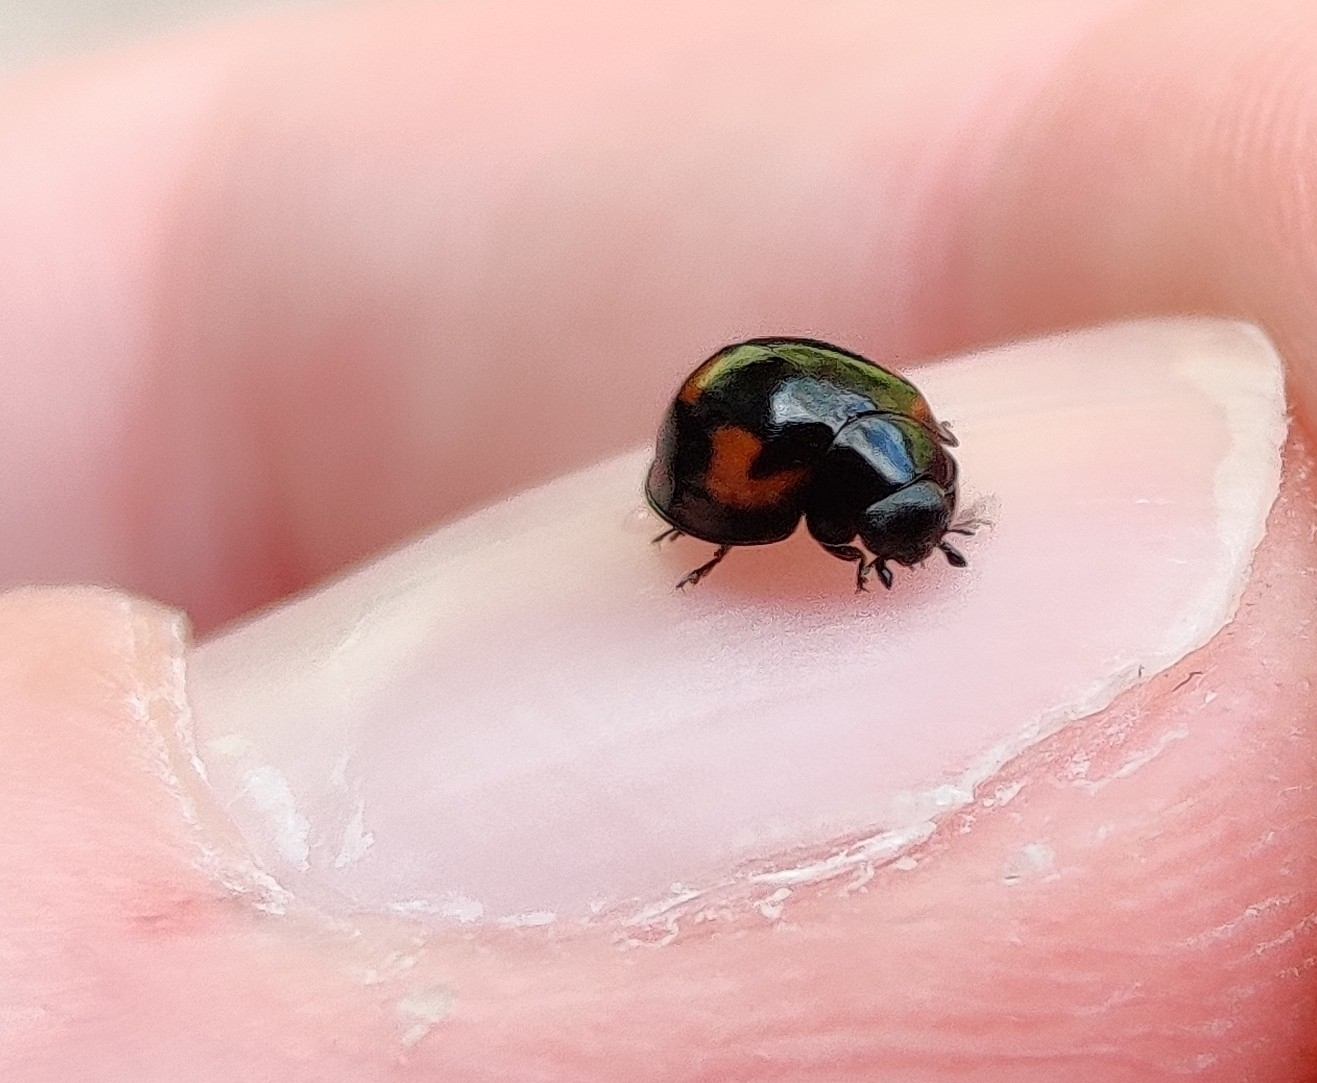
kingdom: Animalia
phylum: Arthropoda
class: Insecta
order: Coleoptera
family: Coccinellidae
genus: Brumus
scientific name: Brumus quadripustulatus
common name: Ladybird beetle
